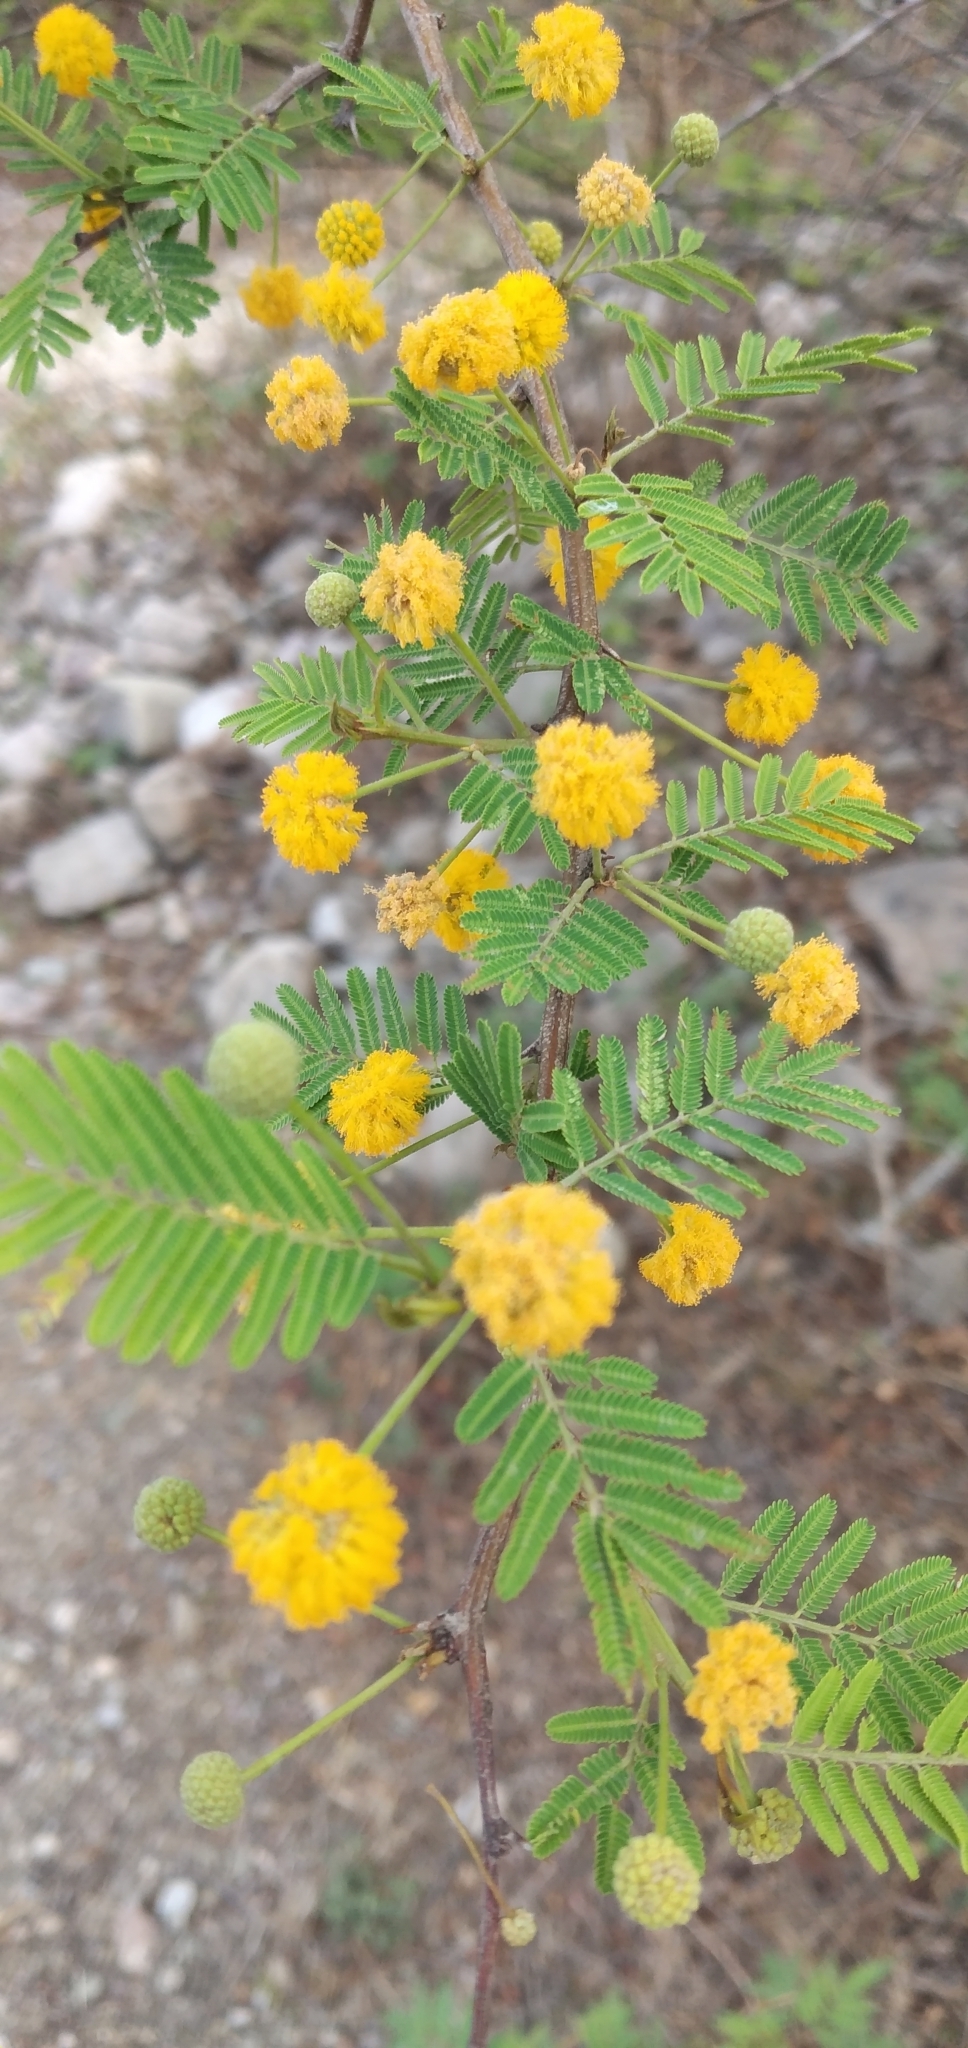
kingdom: Plantae
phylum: Tracheophyta
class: Magnoliopsida
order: Fabales
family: Fabaceae
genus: Vachellia
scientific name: Vachellia caven
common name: Roman cassie
